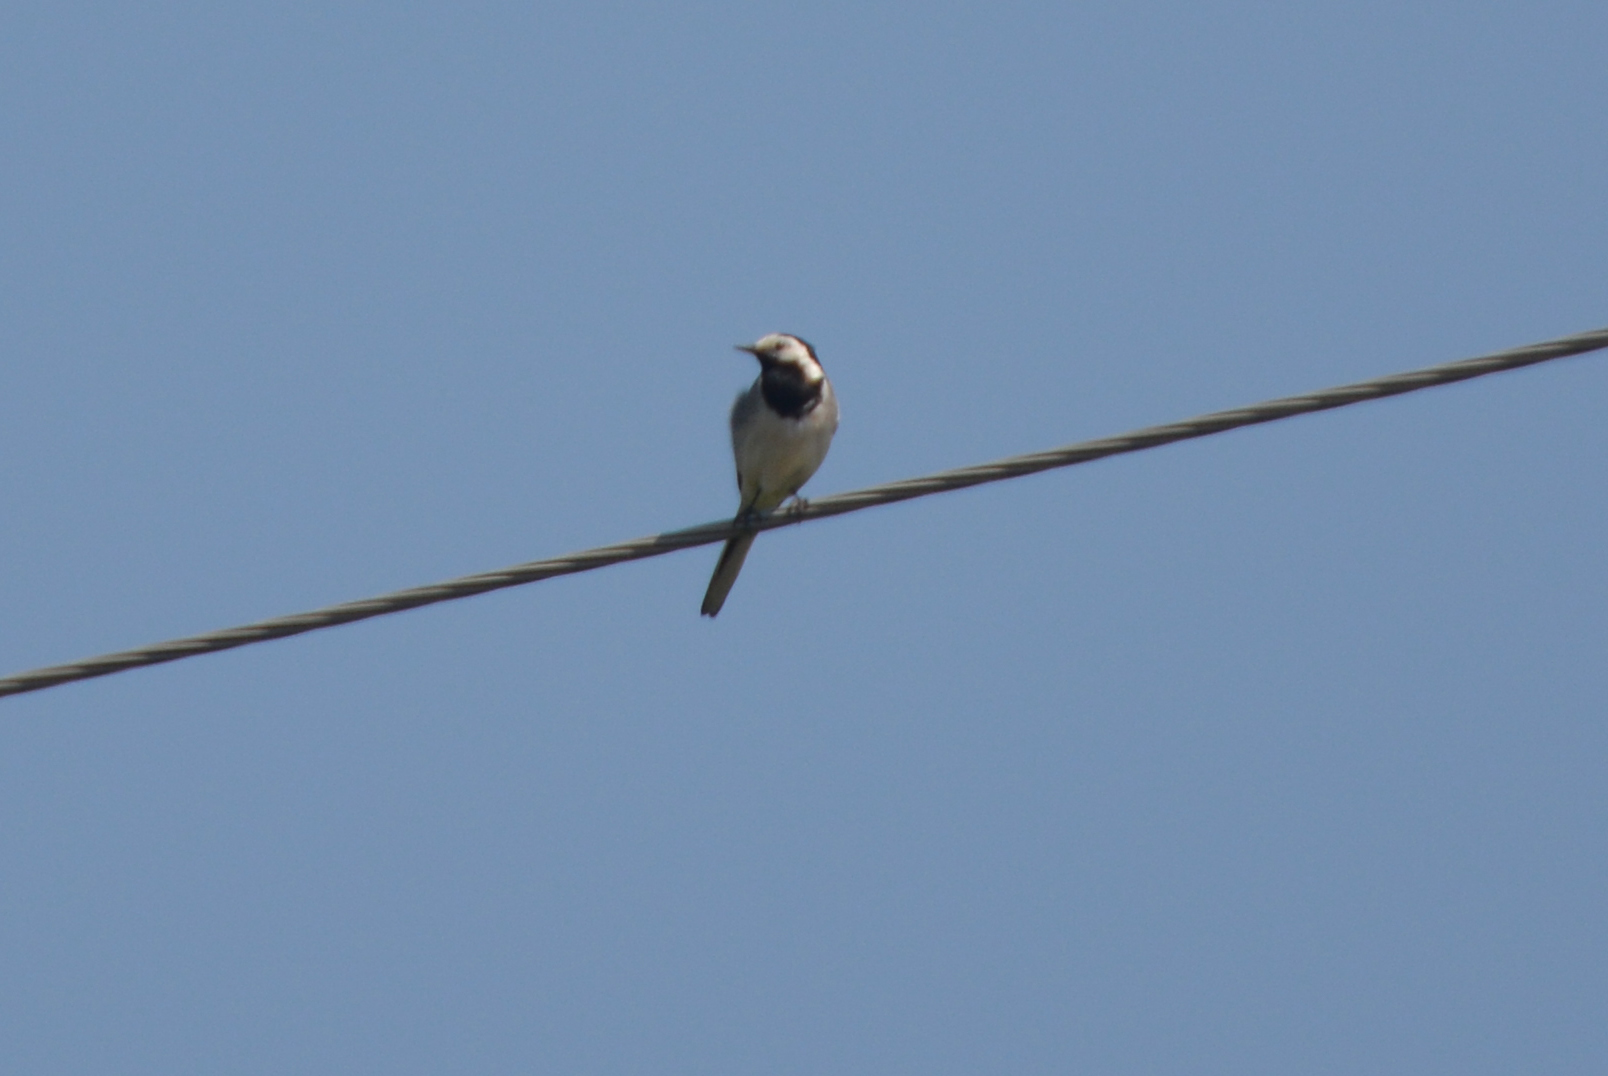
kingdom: Animalia
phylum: Chordata
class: Aves
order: Passeriformes
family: Motacillidae
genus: Motacilla
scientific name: Motacilla alba
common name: White wagtail
